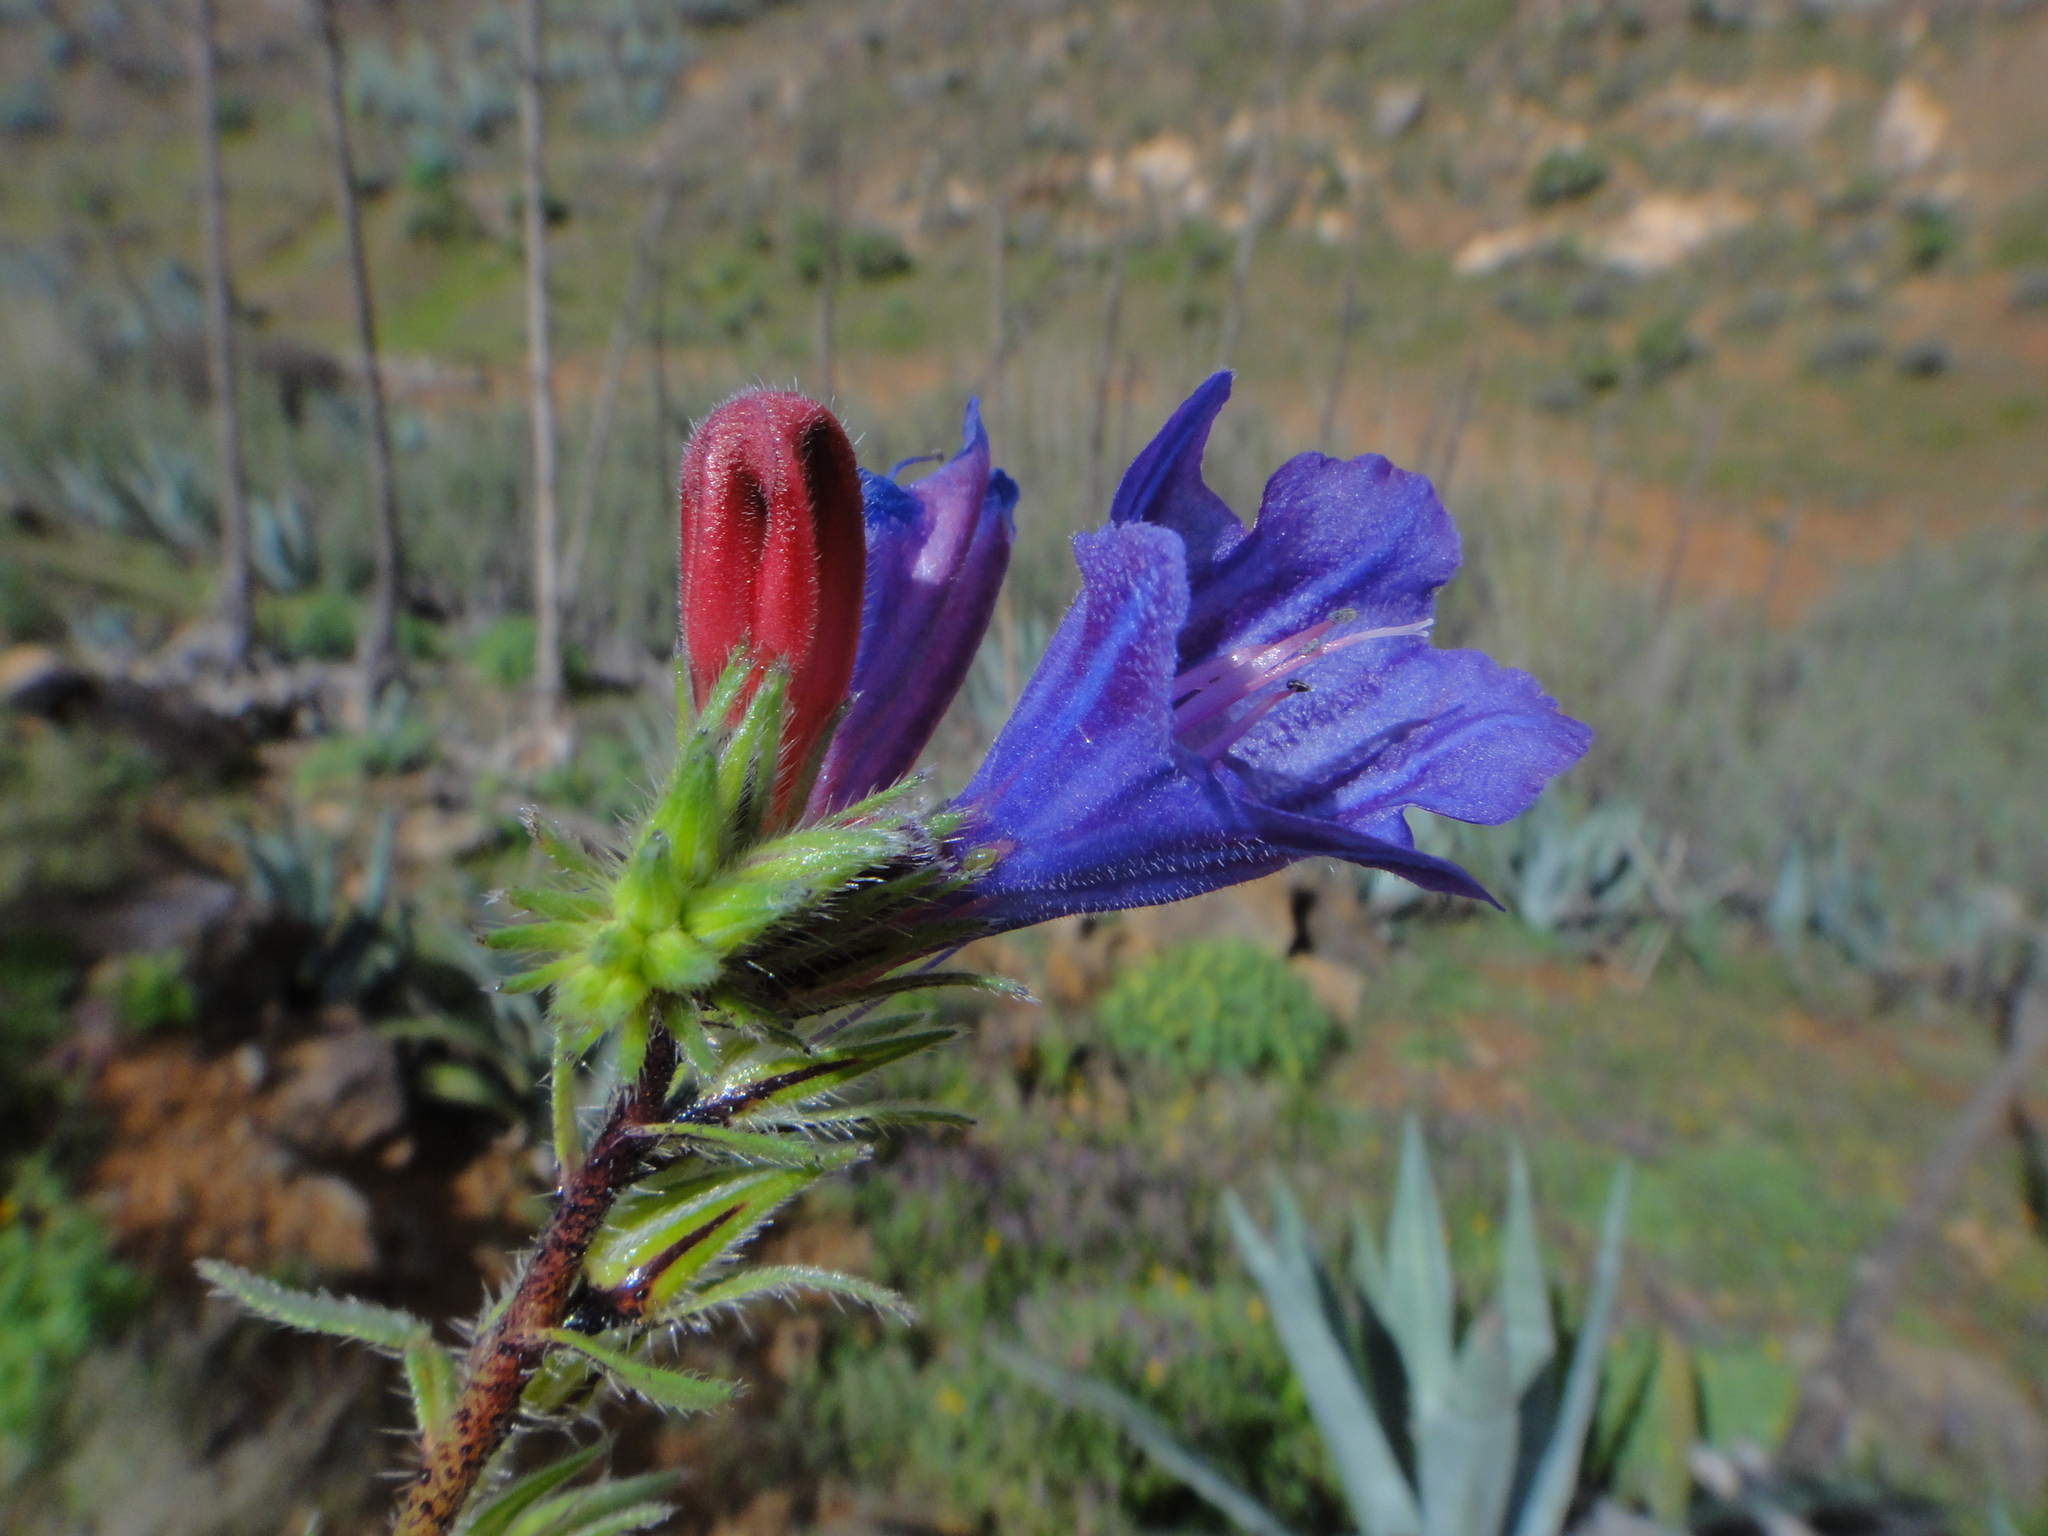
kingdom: Plantae
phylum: Tracheophyta
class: Magnoliopsida
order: Boraginales
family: Boraginaceae
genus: Echium
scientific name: Echium bonnetii
